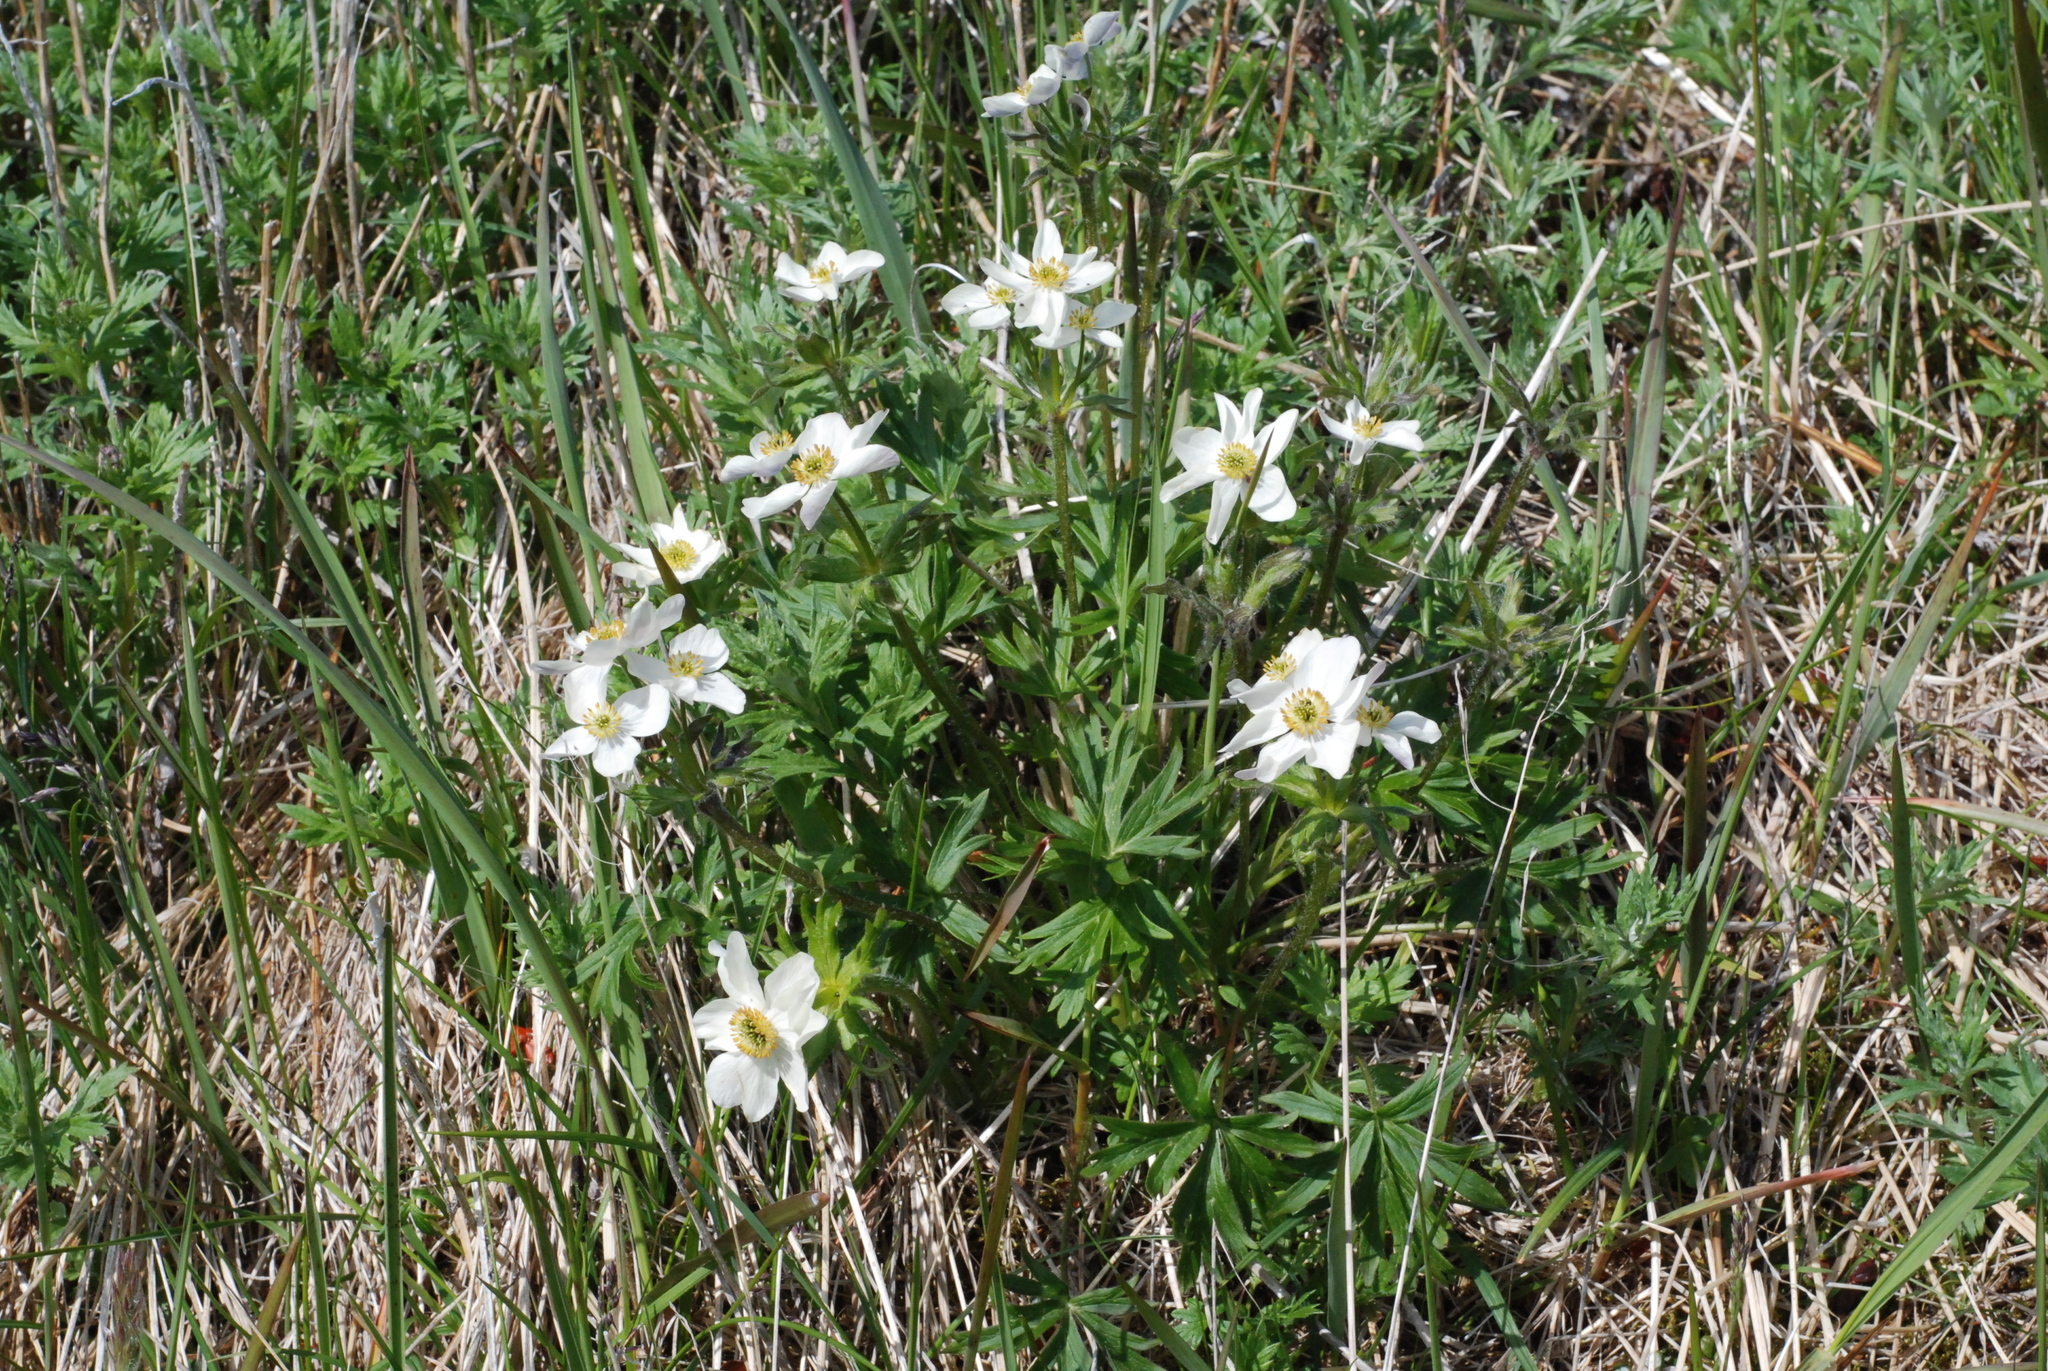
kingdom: Plantae
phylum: Tracheophyta
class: Magnoliopsida
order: Ranunculales
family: Ranunculaceae
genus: Anemonastrum
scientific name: Anemonastrum narcissiflorum
